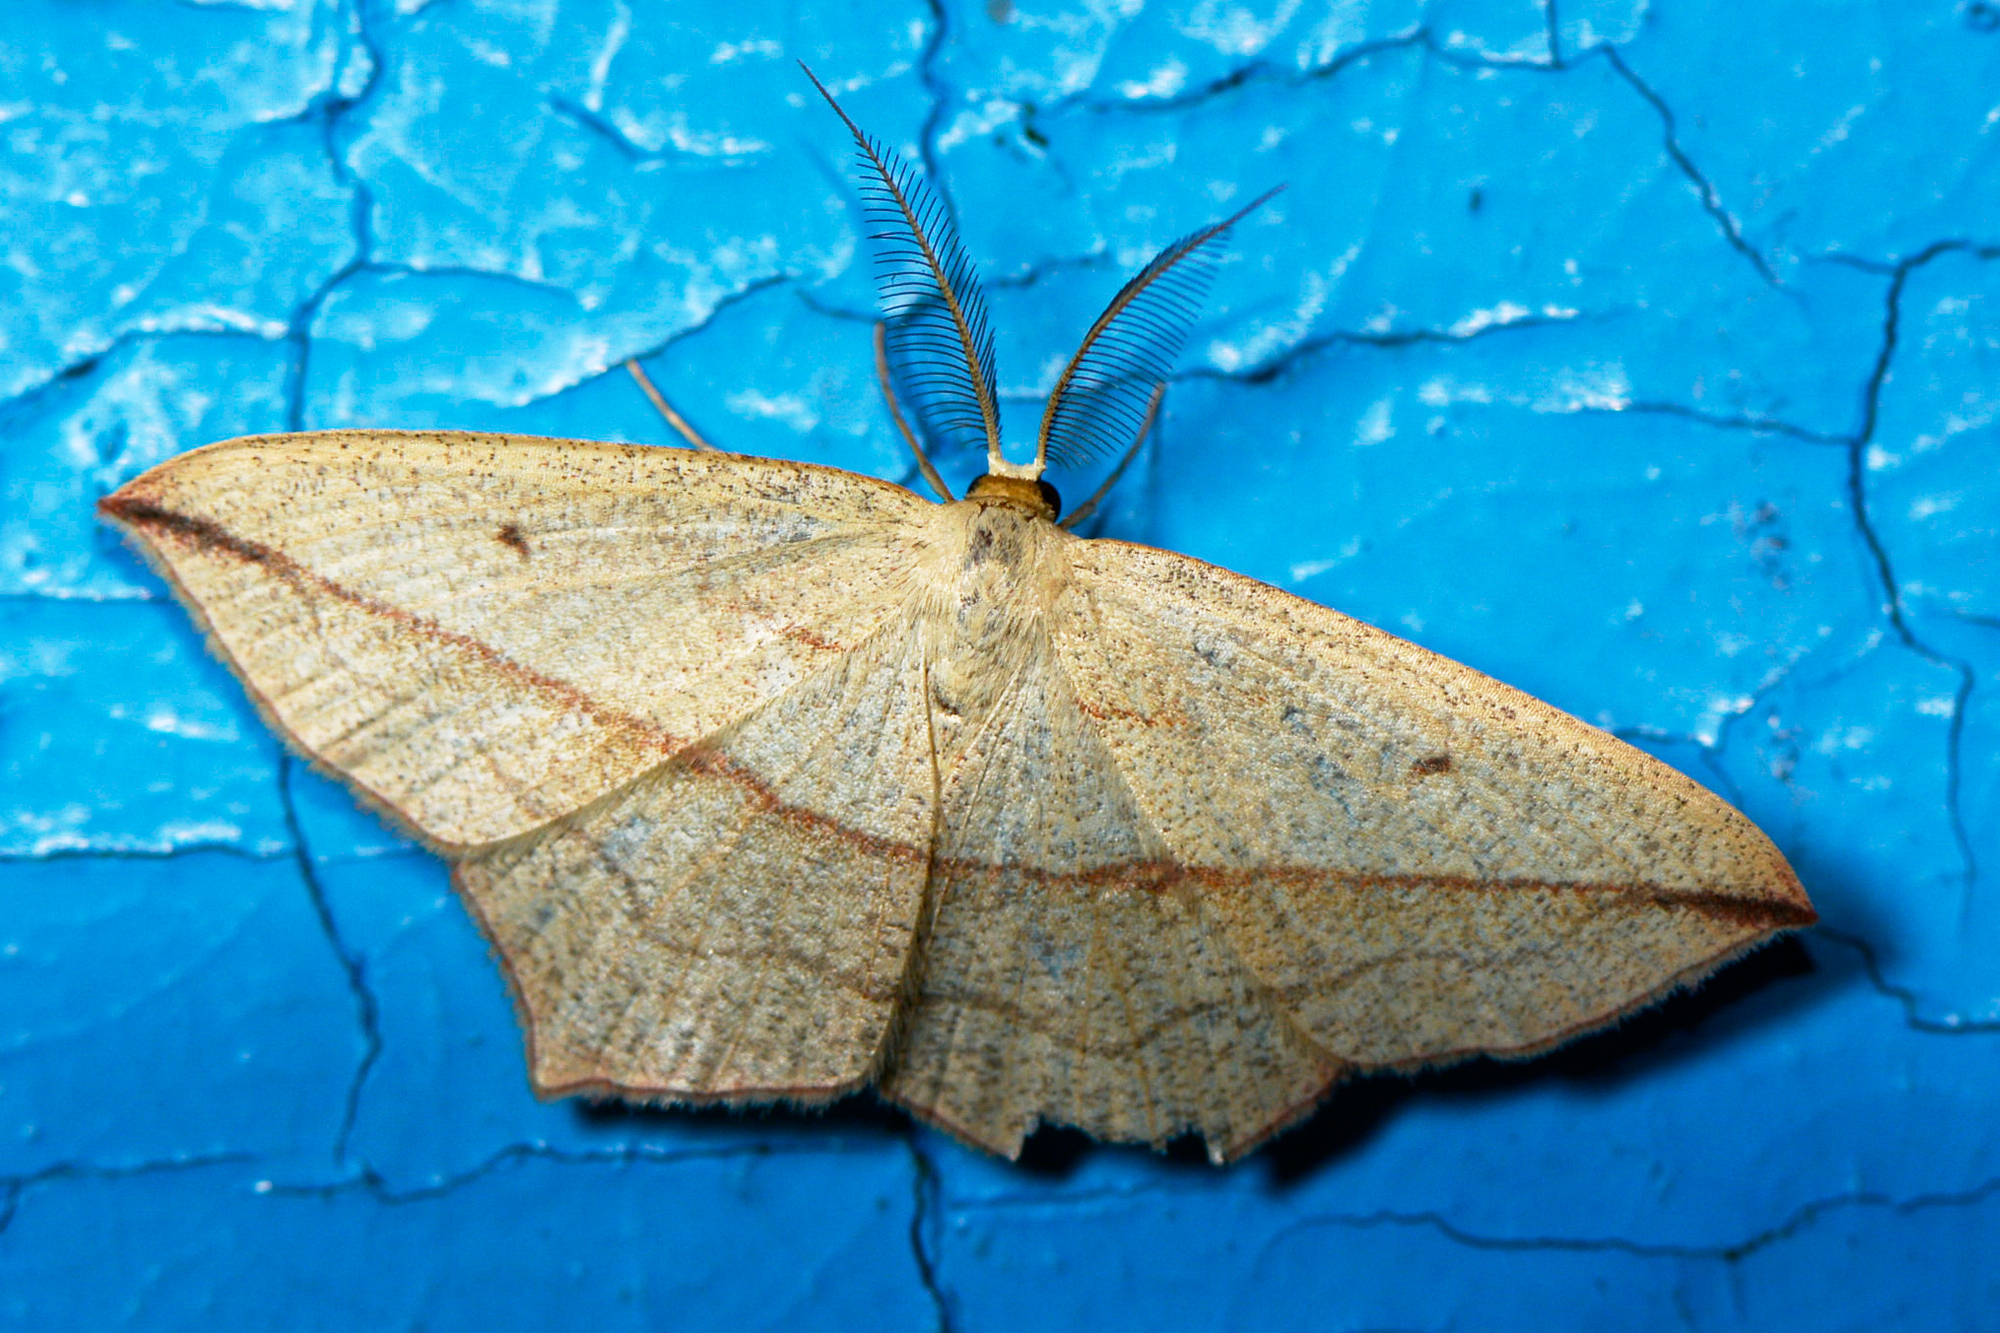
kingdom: Animalia
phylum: Arthropoda
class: Insecta
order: Lepidoptera
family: Geometridae
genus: Timandra
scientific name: Timandra comae
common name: Blood-vein
